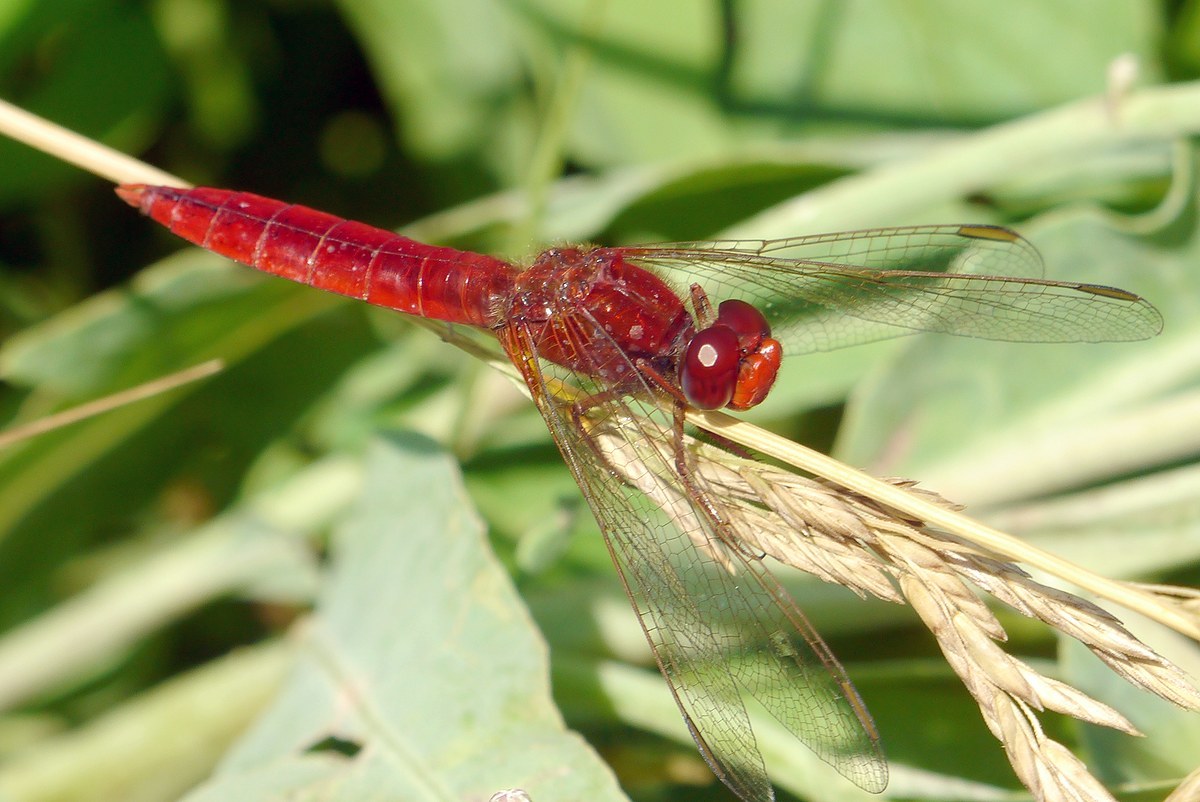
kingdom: Animalia
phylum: Arthropoda
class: Insecta
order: Odonata
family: Libellulidae
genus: Crocothemis
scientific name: Crocothemis erythraea
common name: Scarlet dragonfly
